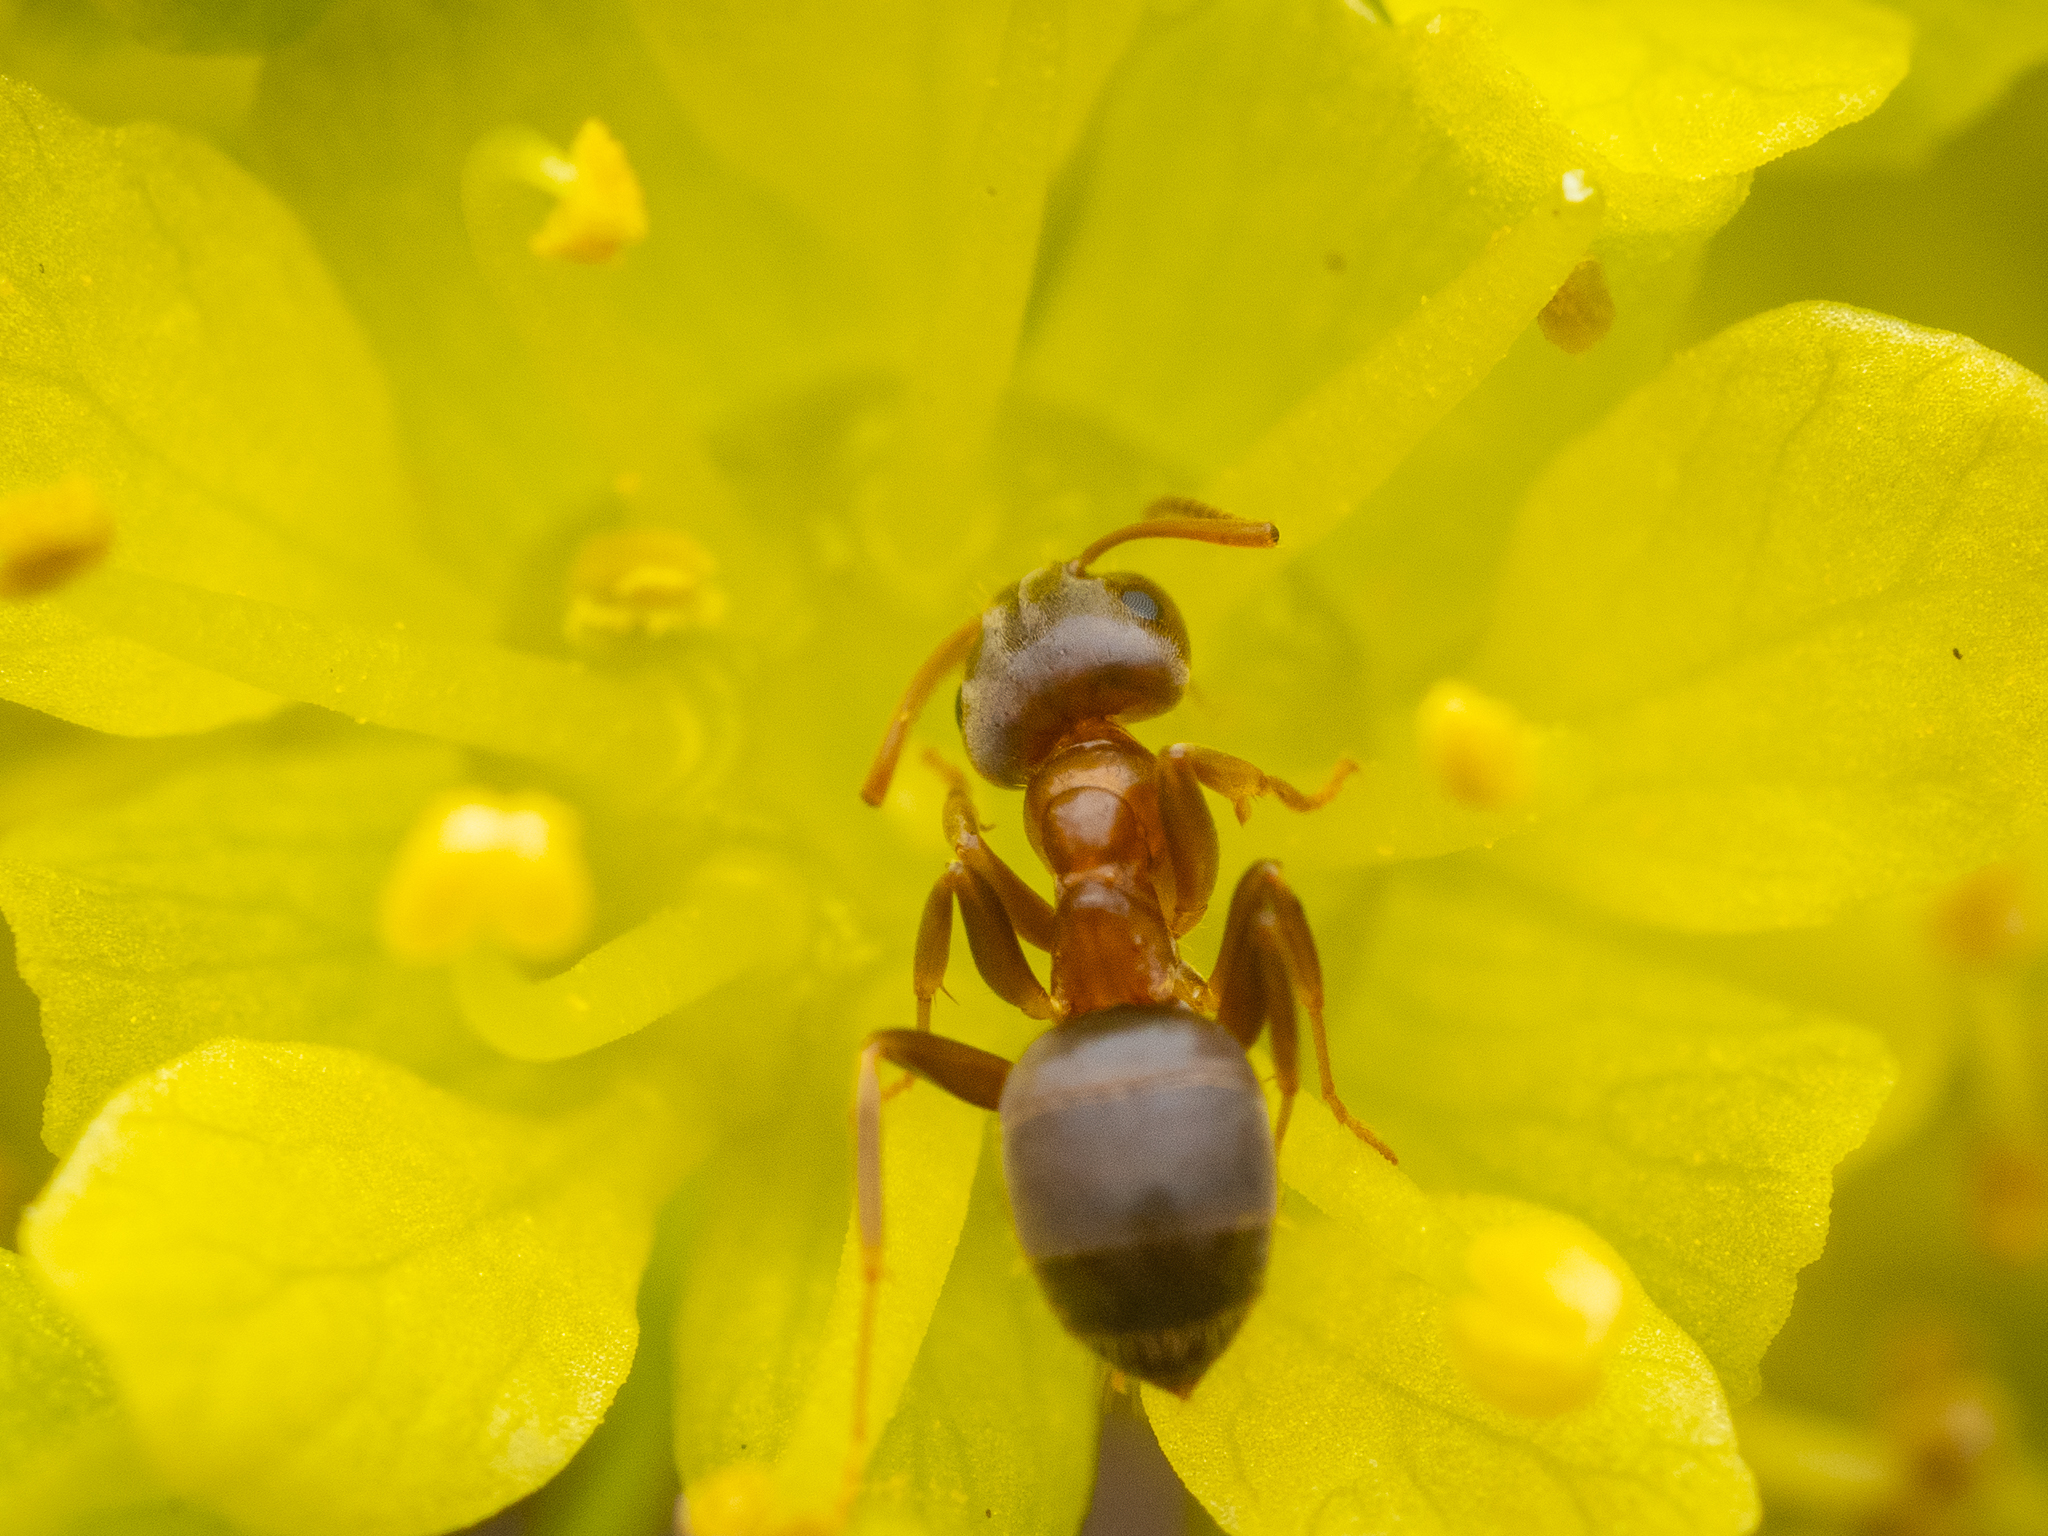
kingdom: Animalia
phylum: Arthropoda
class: Insecta
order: Hymenoptera
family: Formicidae
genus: Lasius
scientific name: Lasius brunneus
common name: Brown ant
